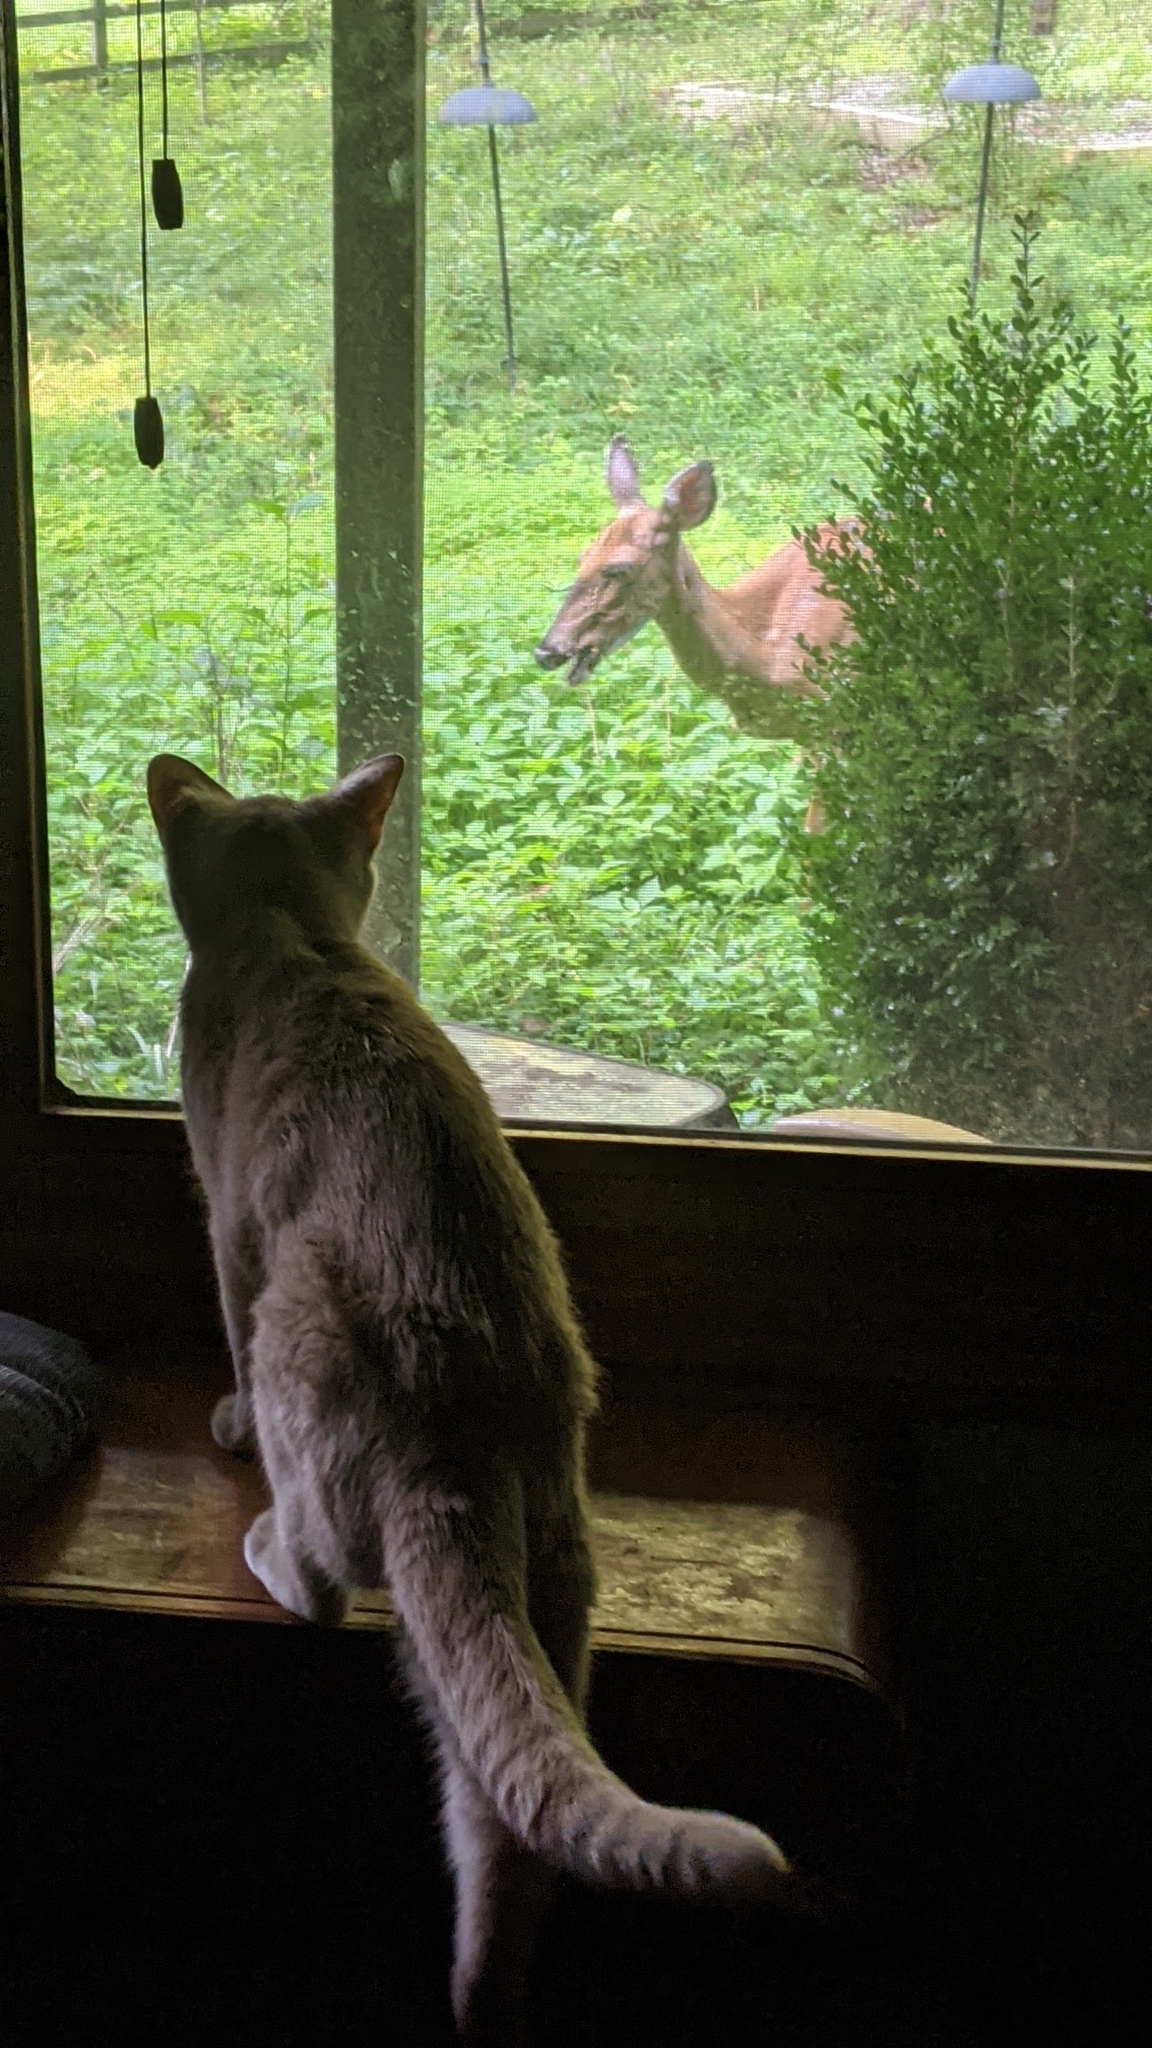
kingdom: Animalia
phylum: Chordata
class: Mammalia
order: Artiodactyla
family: Cervidae
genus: Odocoileus
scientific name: Odocoileus virginianus
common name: White-tailed deer
